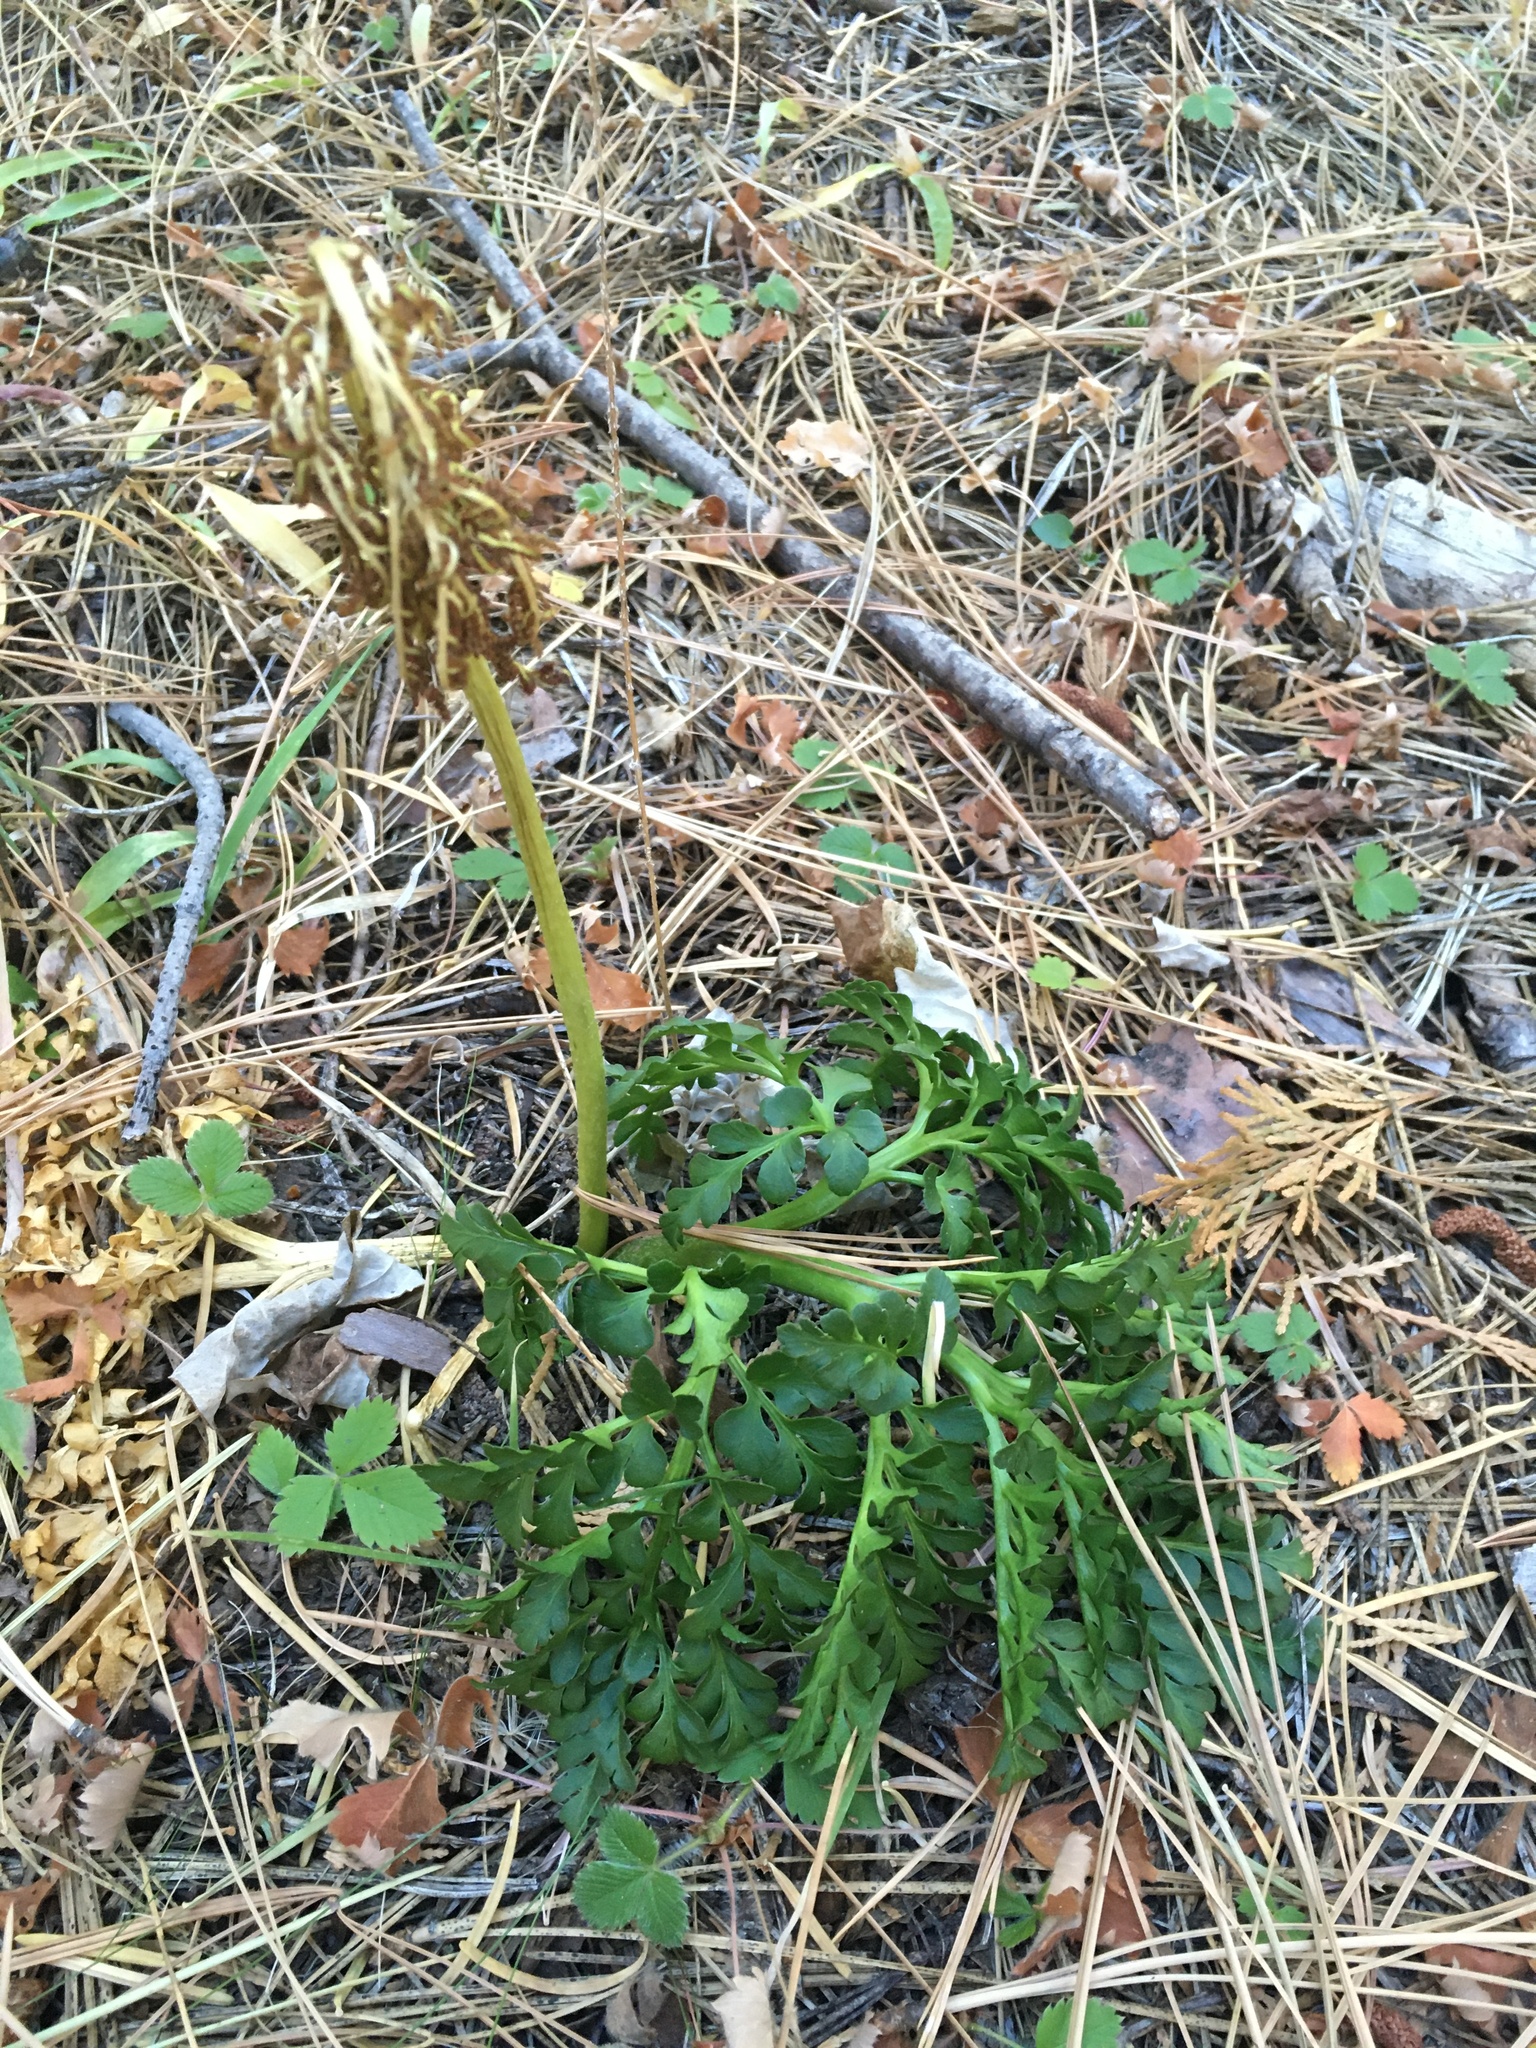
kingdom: Plantae
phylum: Tracheophyta
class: Polypodiopsida
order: Ophioglossales
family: Ophioglossaceae
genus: Sceptridium
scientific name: Sceptridium multifidum
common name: Leathery grape fern
